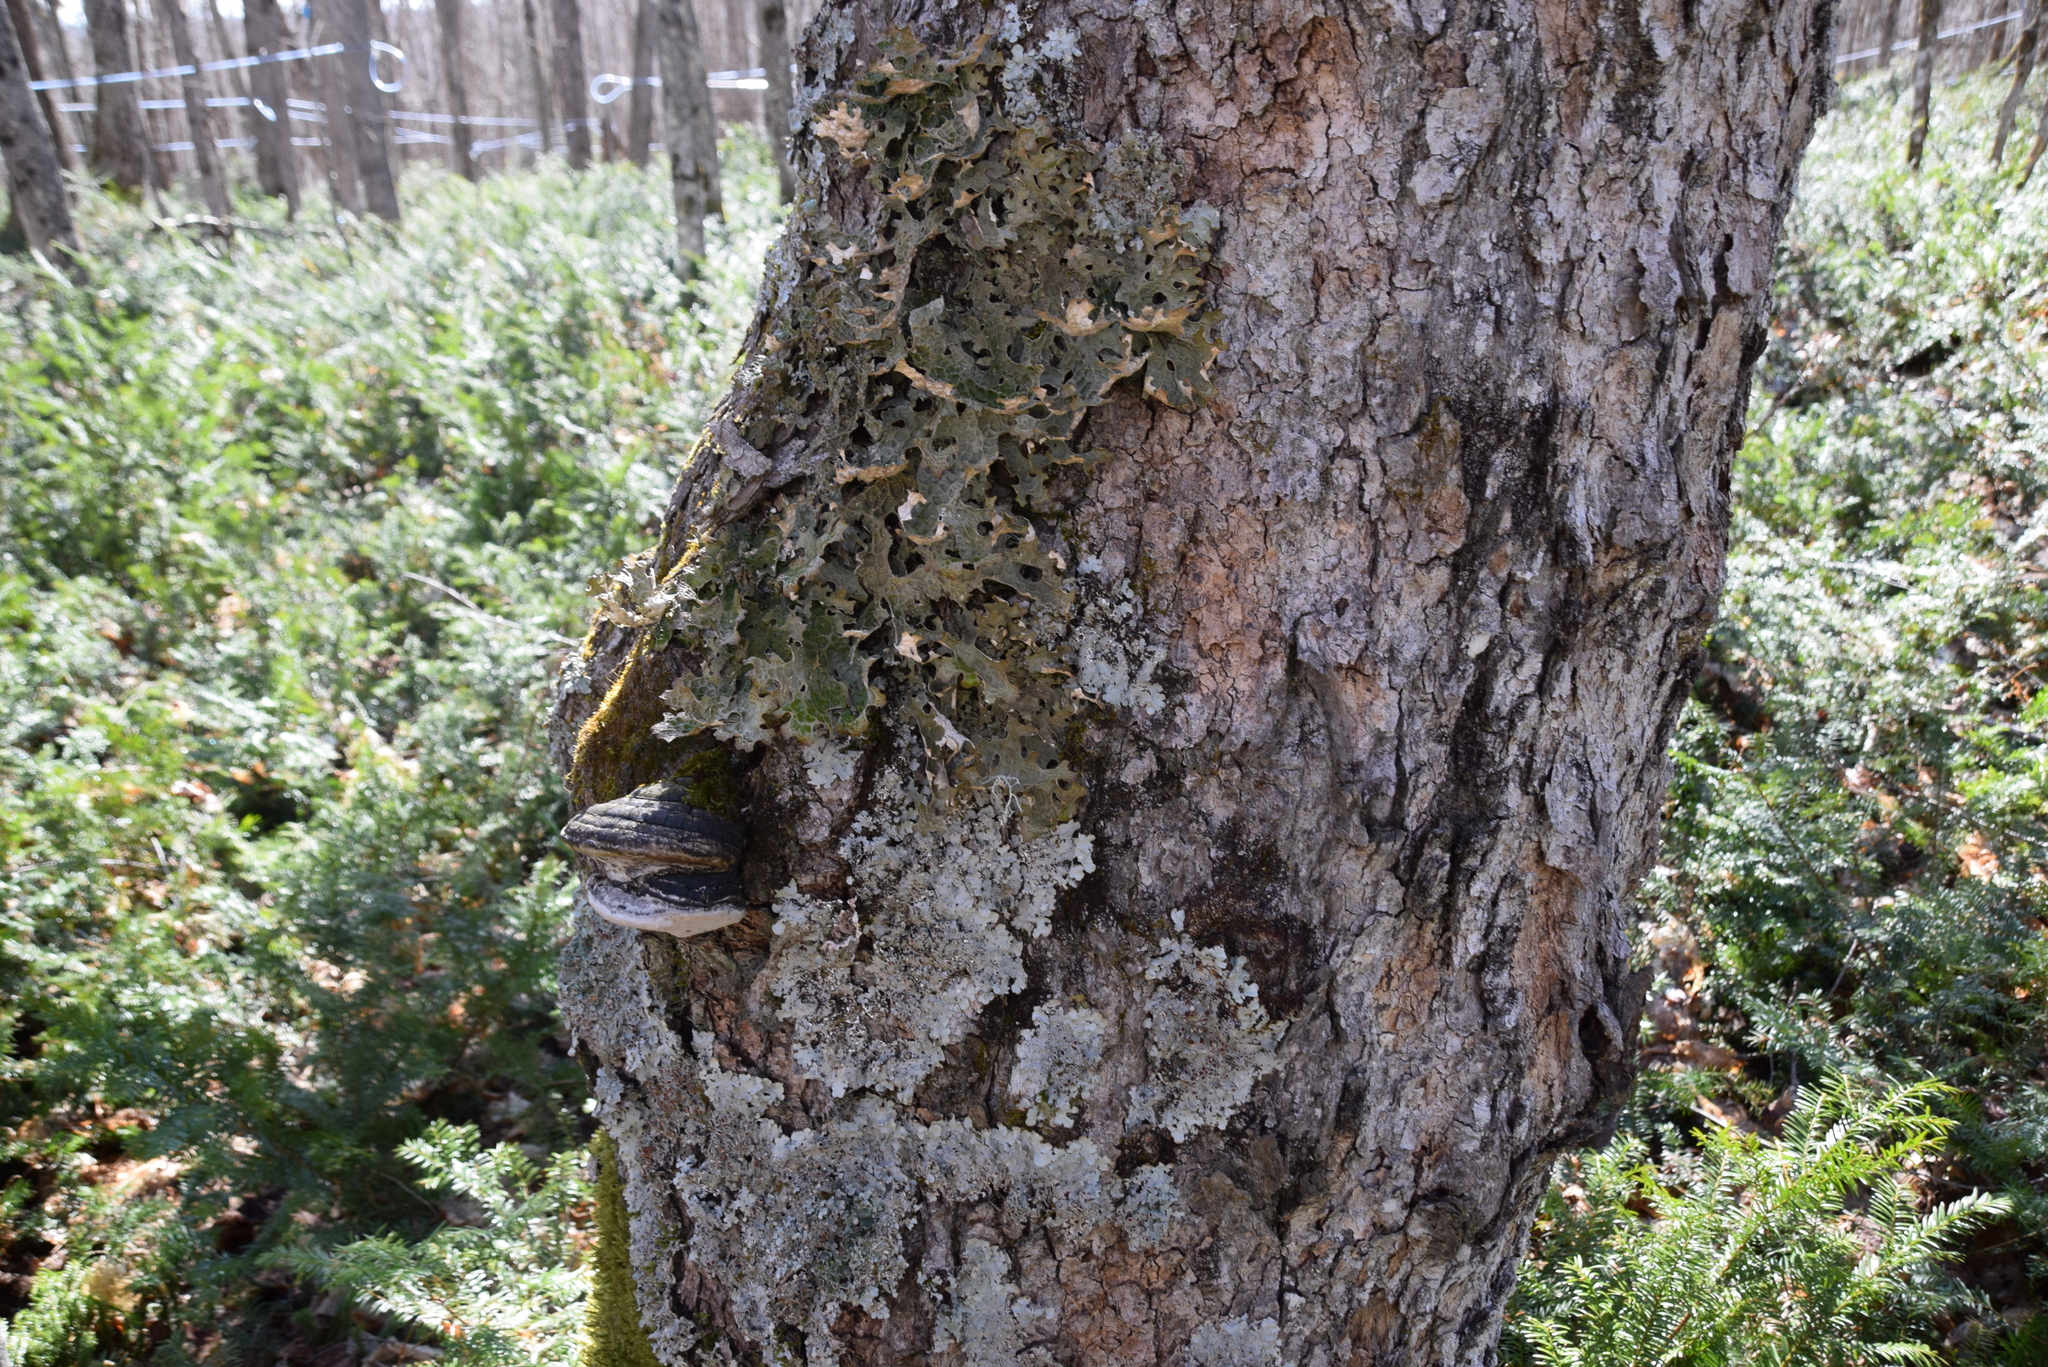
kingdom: Fungi
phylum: Ascomycota
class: Lecanoromycetes
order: Peltigerales
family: Lobariaceae
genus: Lobaria
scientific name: Lobaria pulmonaria
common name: Lungwort
